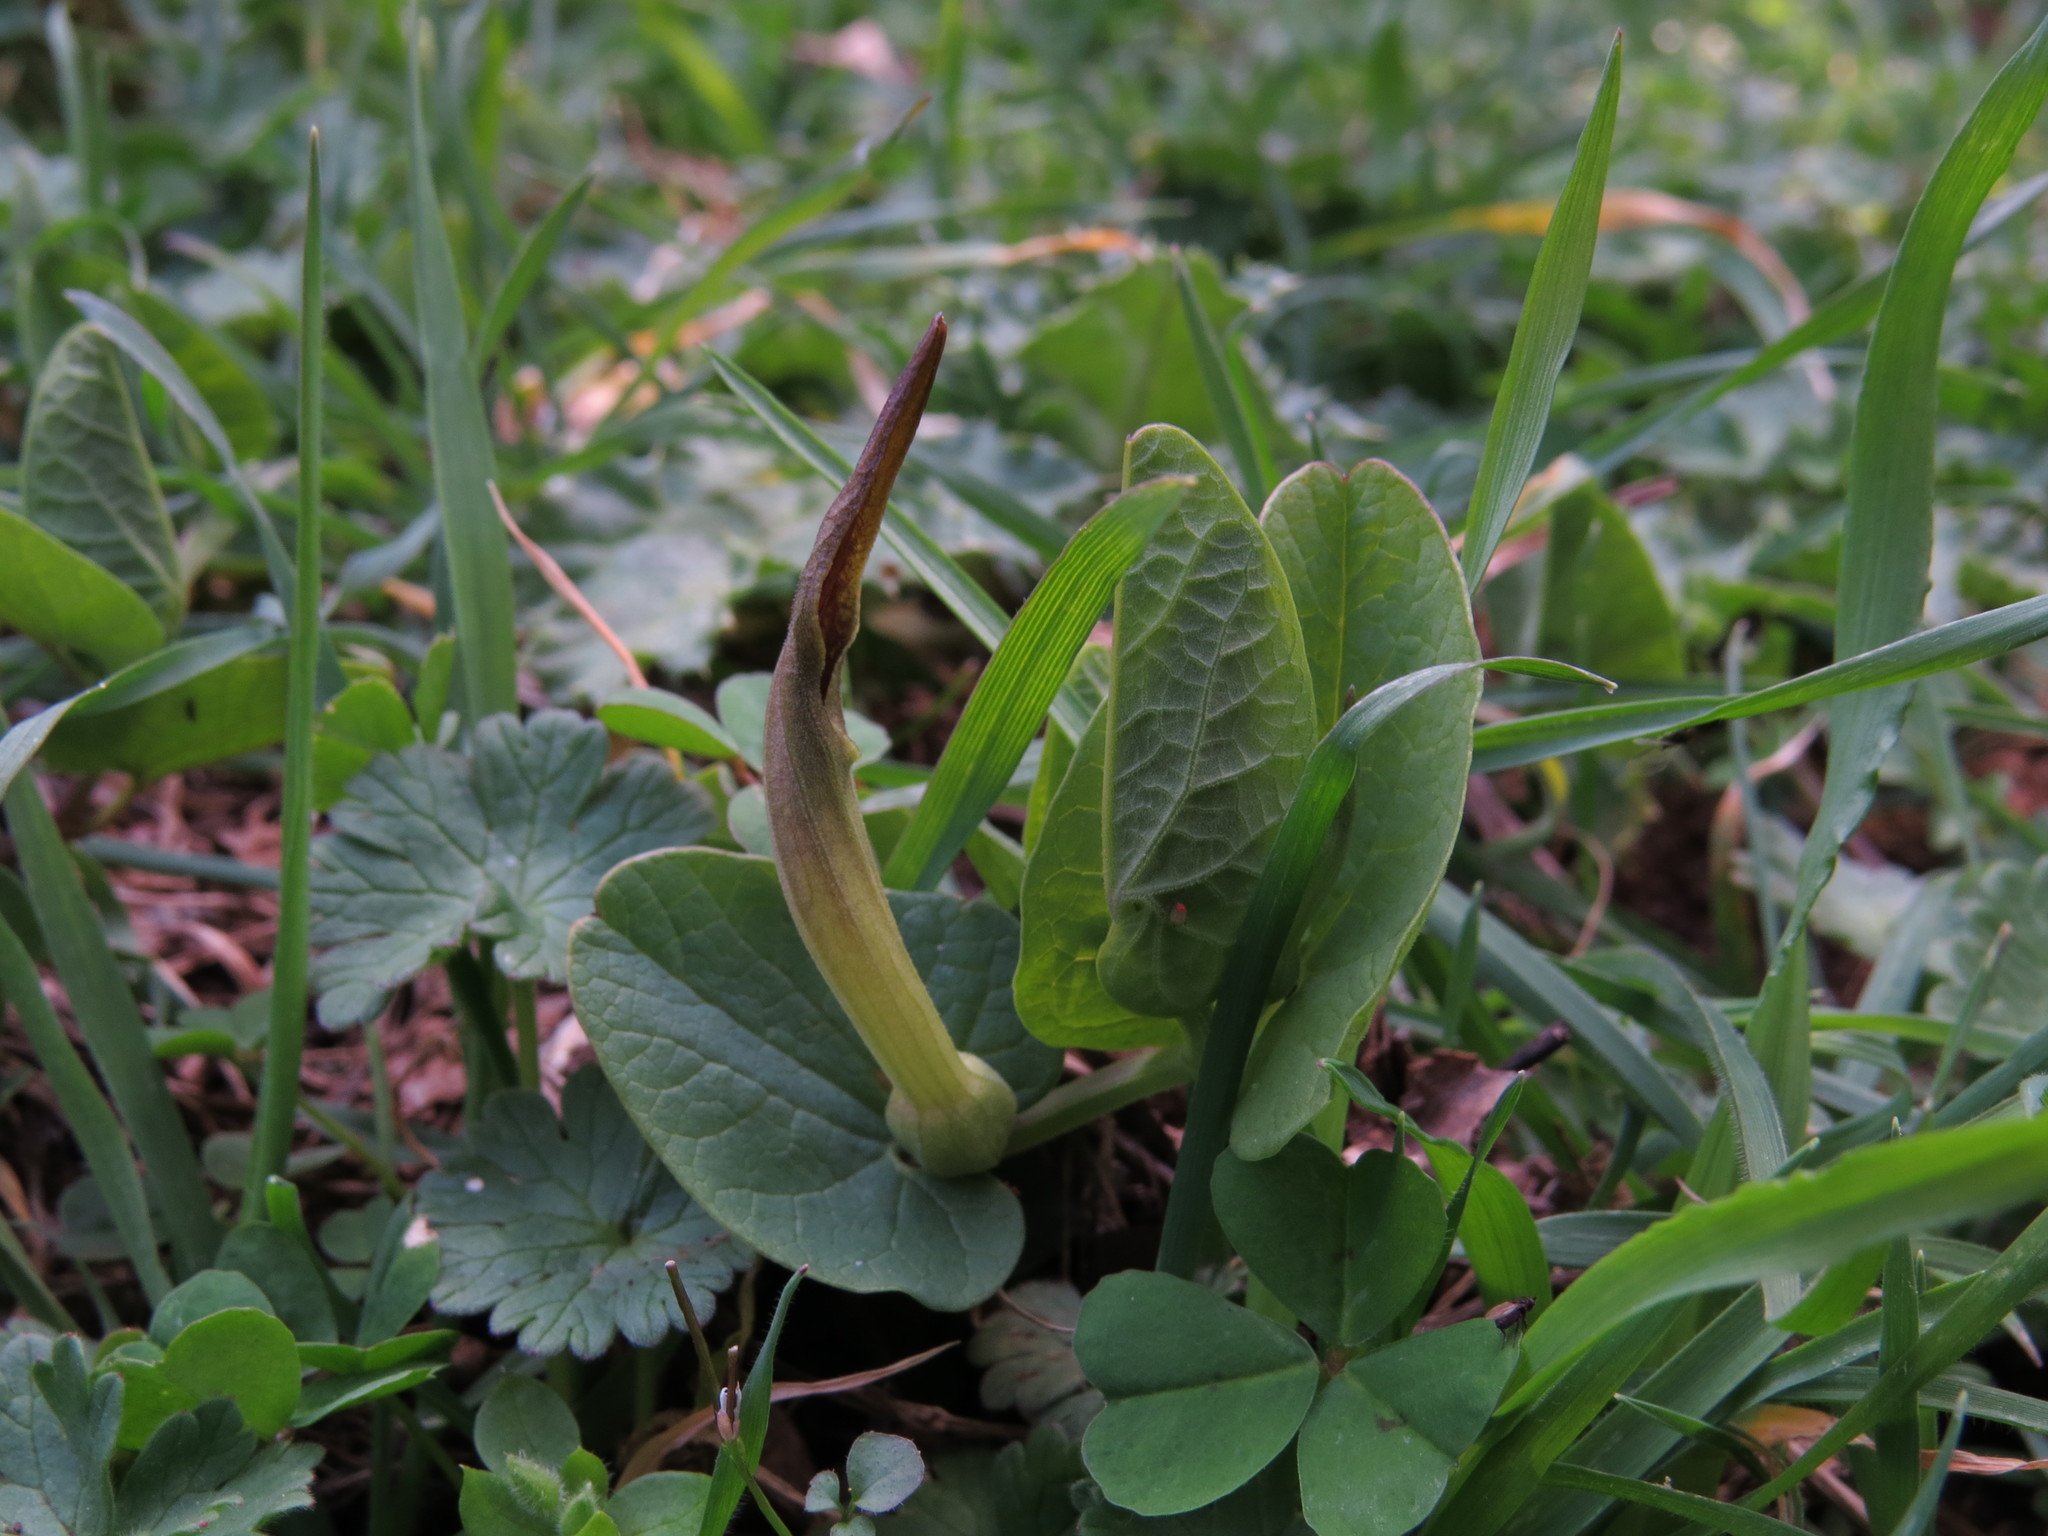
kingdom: Plantae
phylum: Tracheophyta
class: Magnoliopsida
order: Piperales
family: Aristolochiaceae
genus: Aristolochia
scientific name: Aristolochia paucinervis
